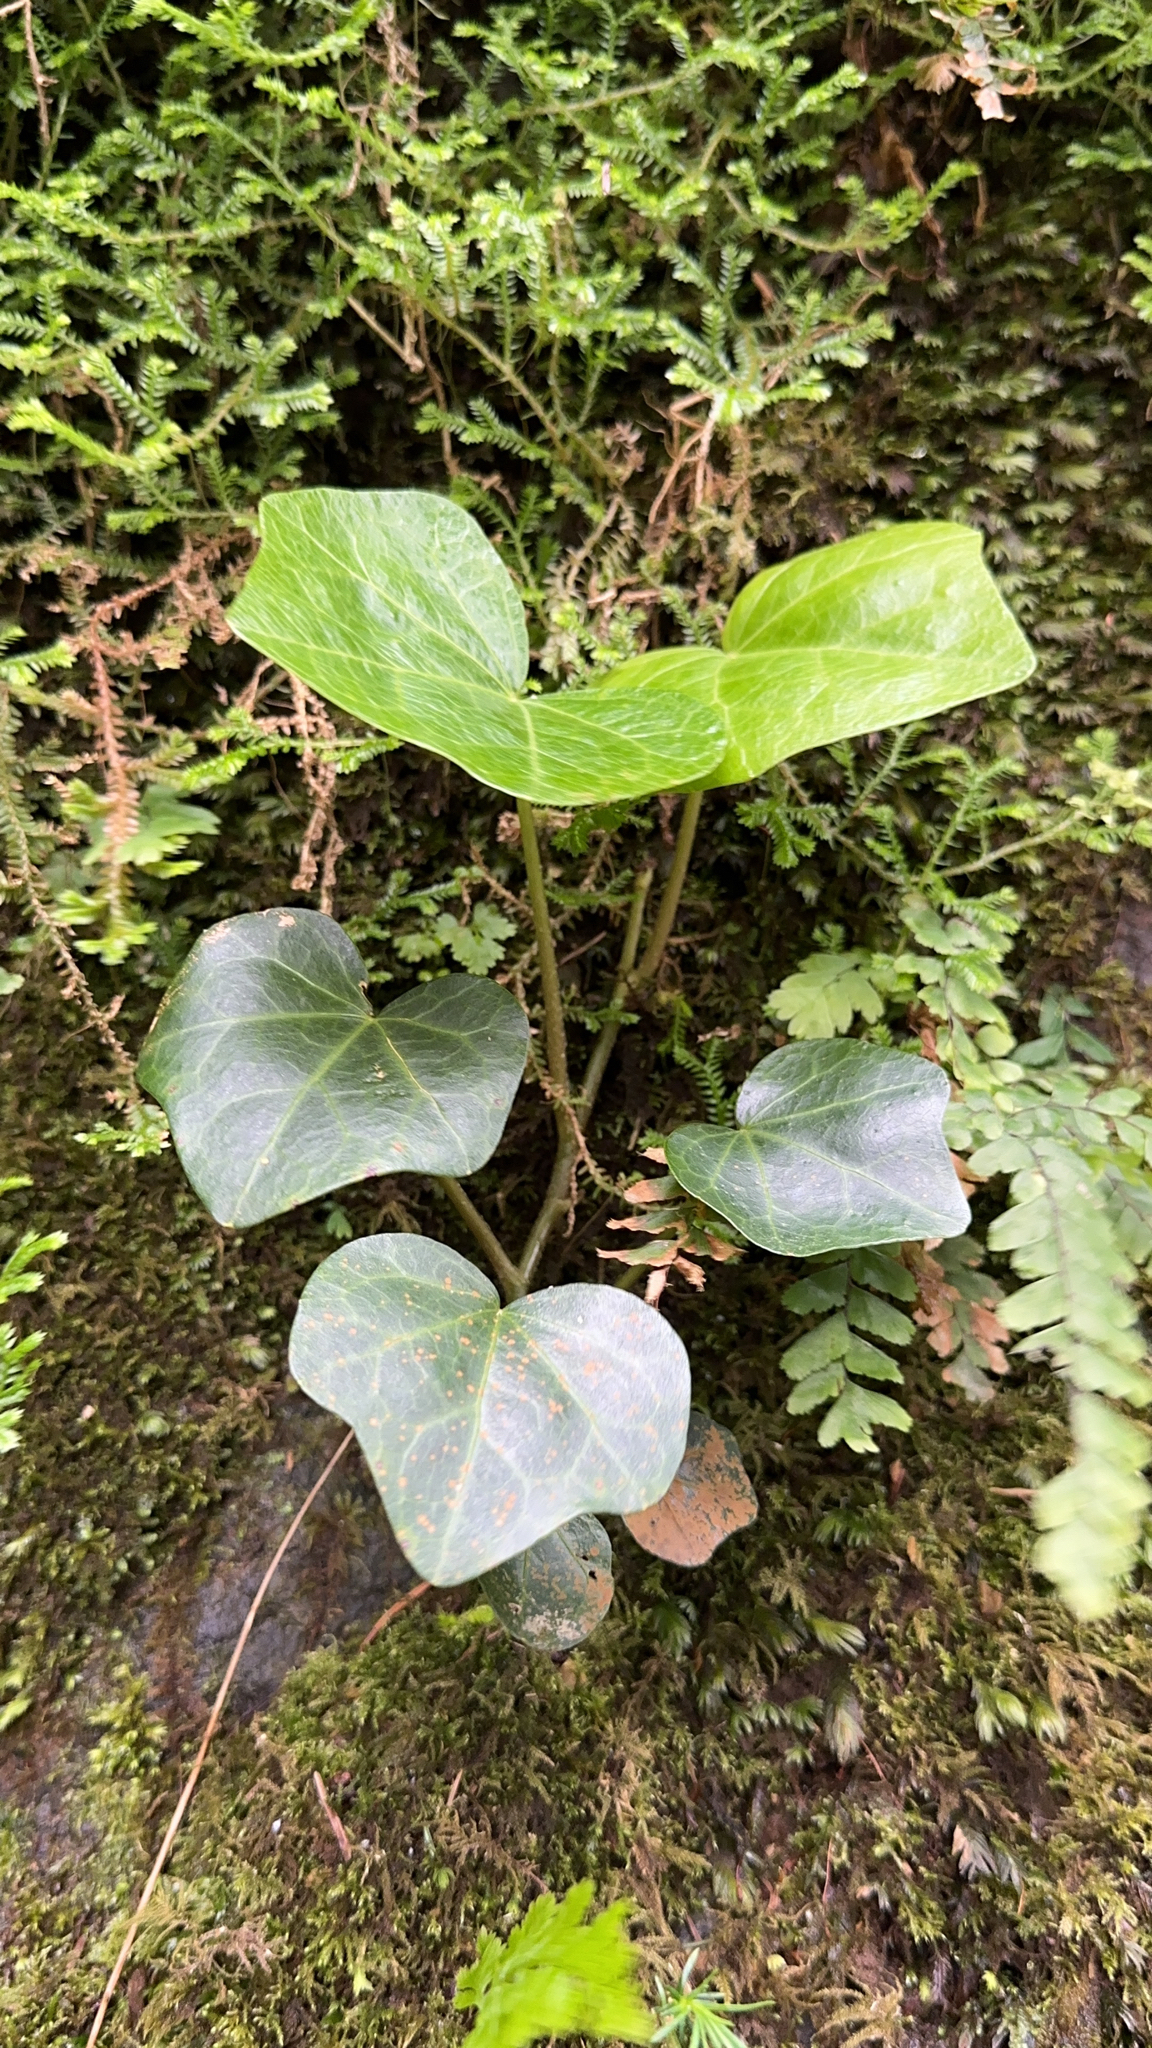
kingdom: Plantae
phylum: Tracheophyta
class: Magnoliopsida
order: Apiales
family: Araliaceae
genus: Hedera
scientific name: Hedera azorica
